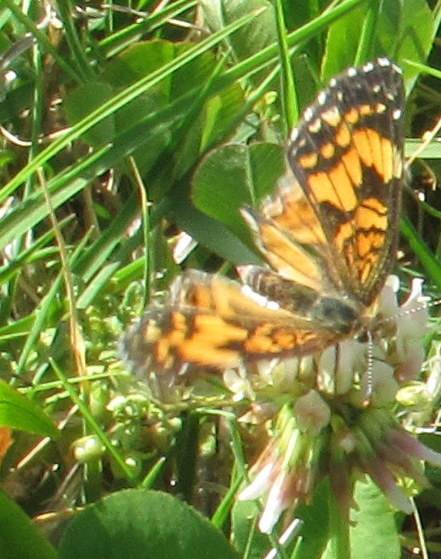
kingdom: Animalia
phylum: Arthropoda
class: Insecta
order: Lepidoptera
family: Nymphalidae
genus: Chlosyne
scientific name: Chlosyne gorgone
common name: Gorgone checkerspot
